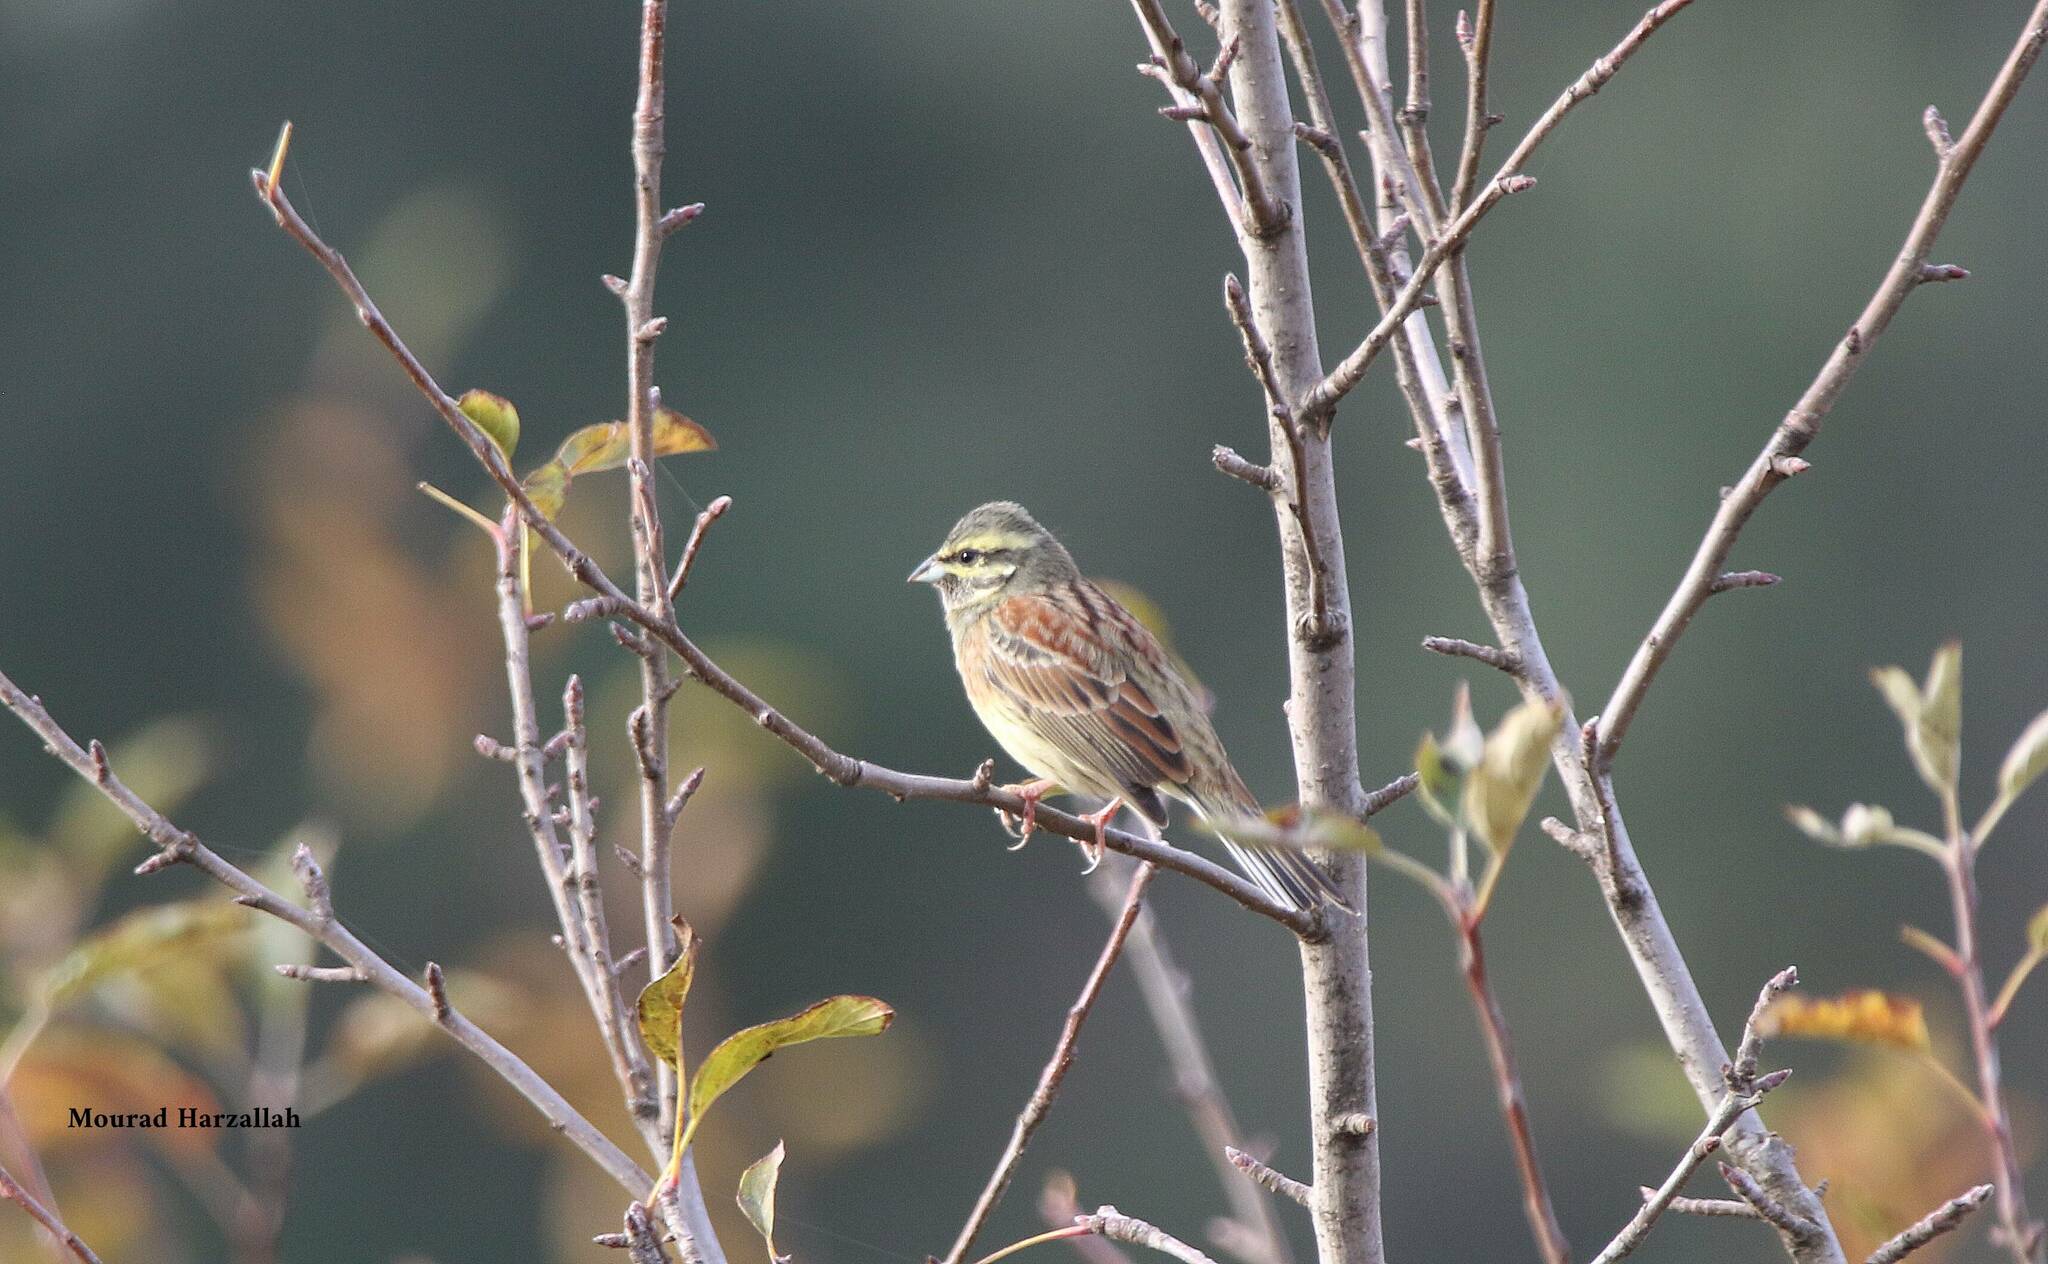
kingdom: Animalia
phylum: Chordata
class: Aves
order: Passeriformes
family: Emberizidae
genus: Emberiza
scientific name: Emberiza cirlus
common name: Cirl bunting
